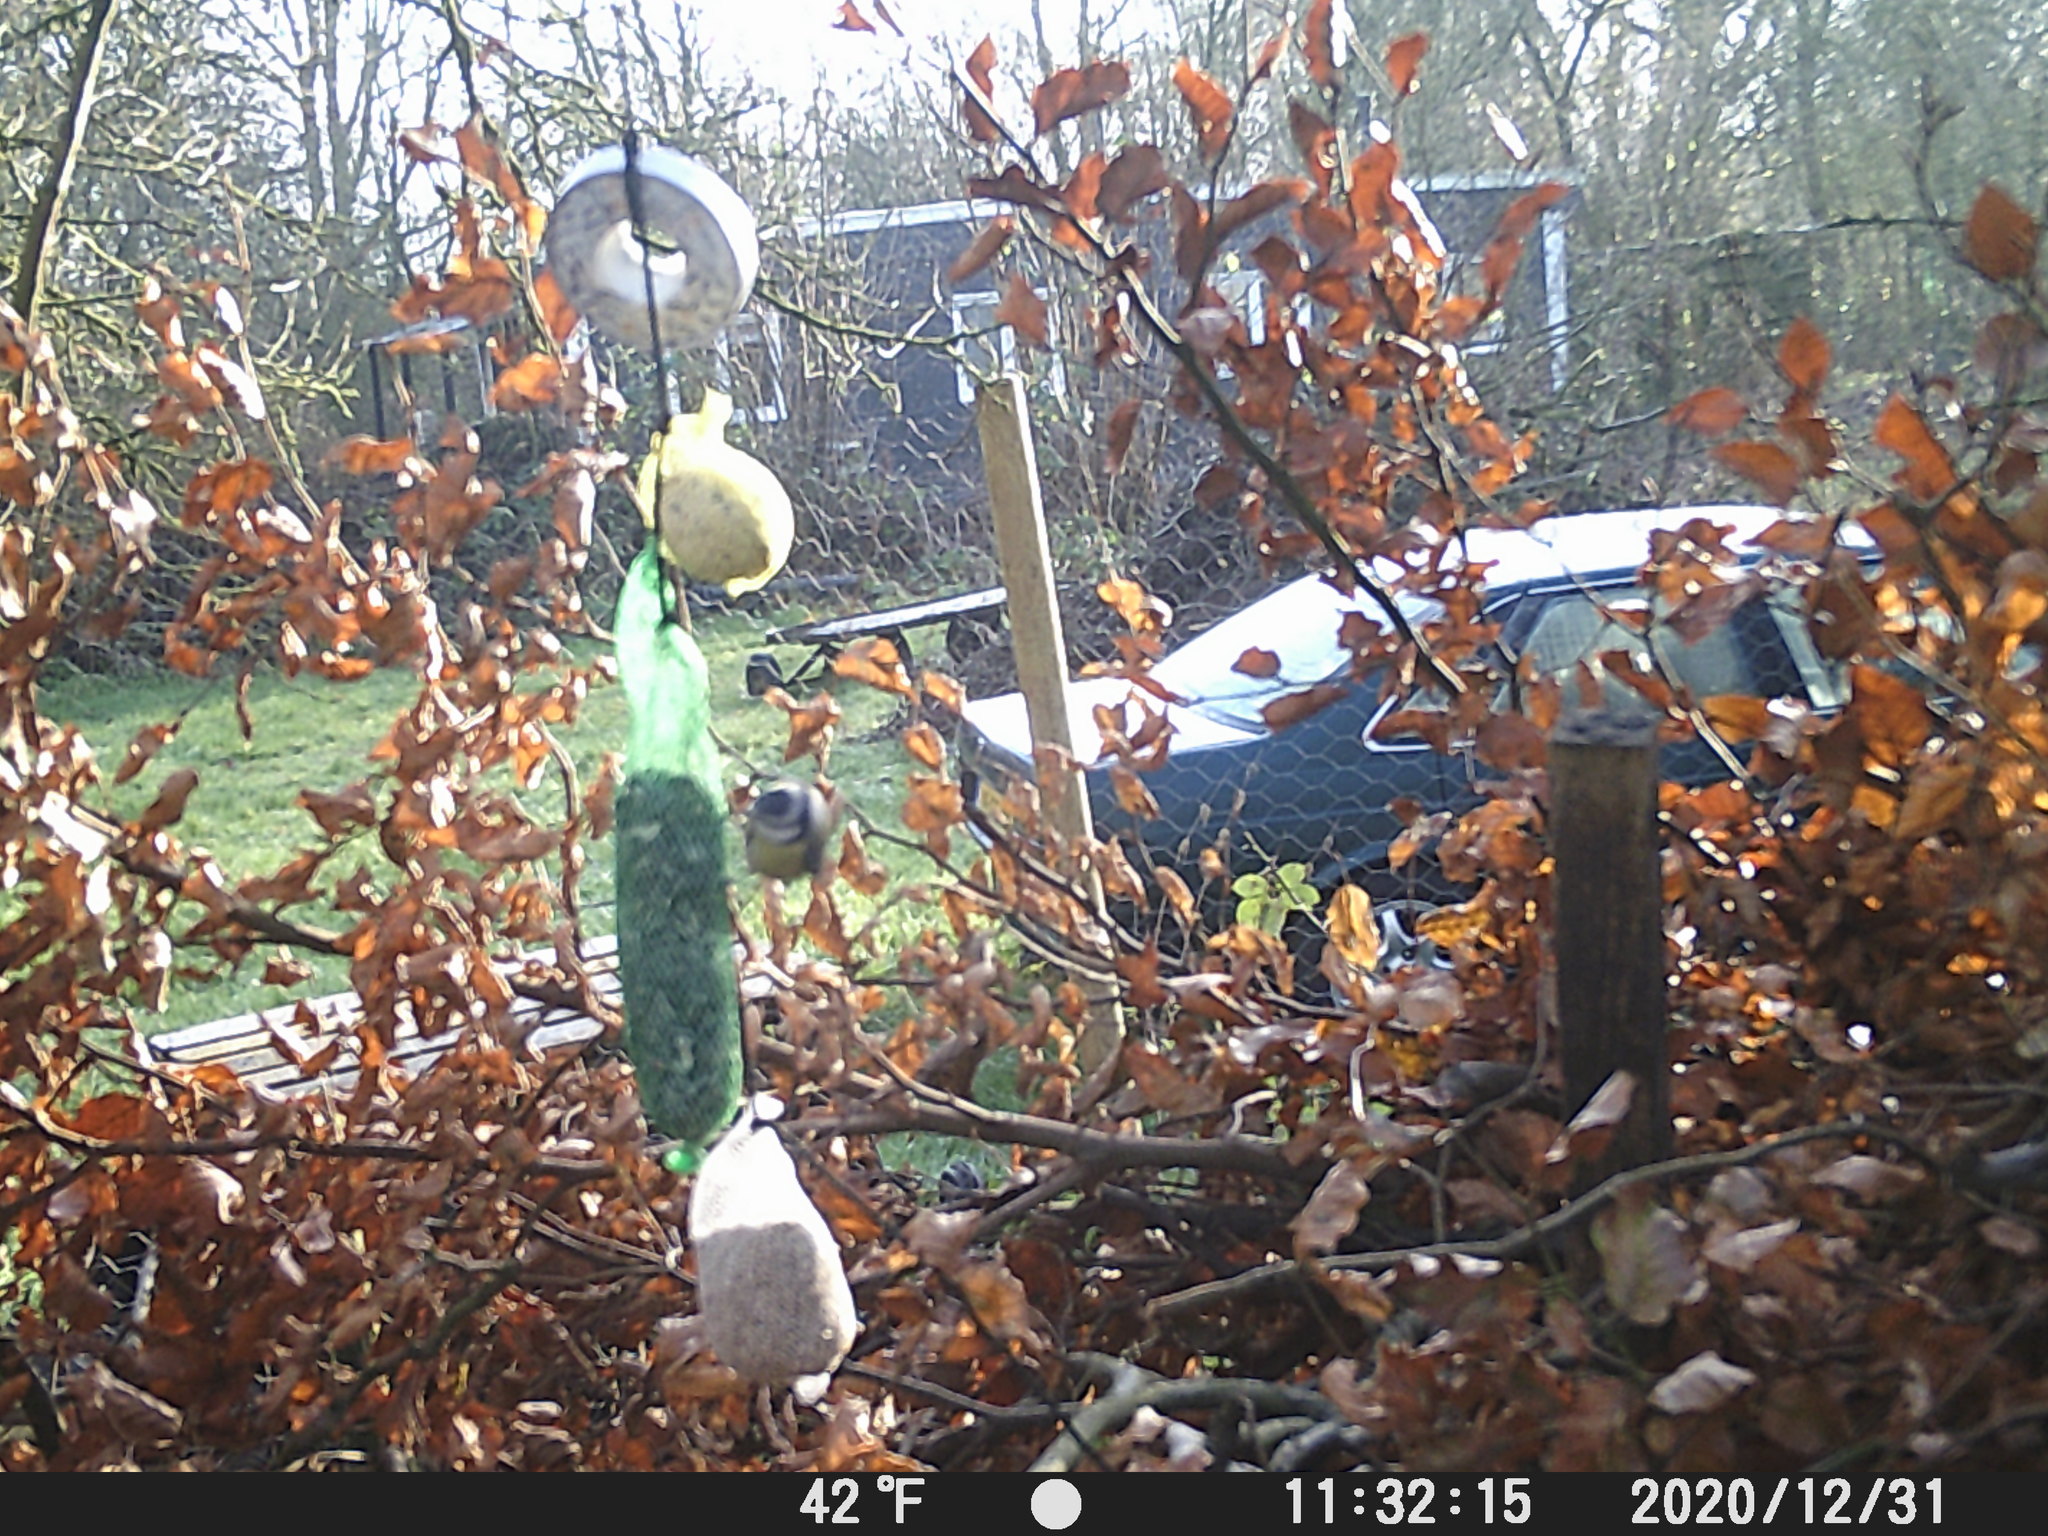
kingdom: Animalia
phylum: Chordata
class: Aves
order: Passeriformes
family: Paridae
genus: Cyanistes
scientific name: Cyanistes caeruleus
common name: Eurasian blue tit
